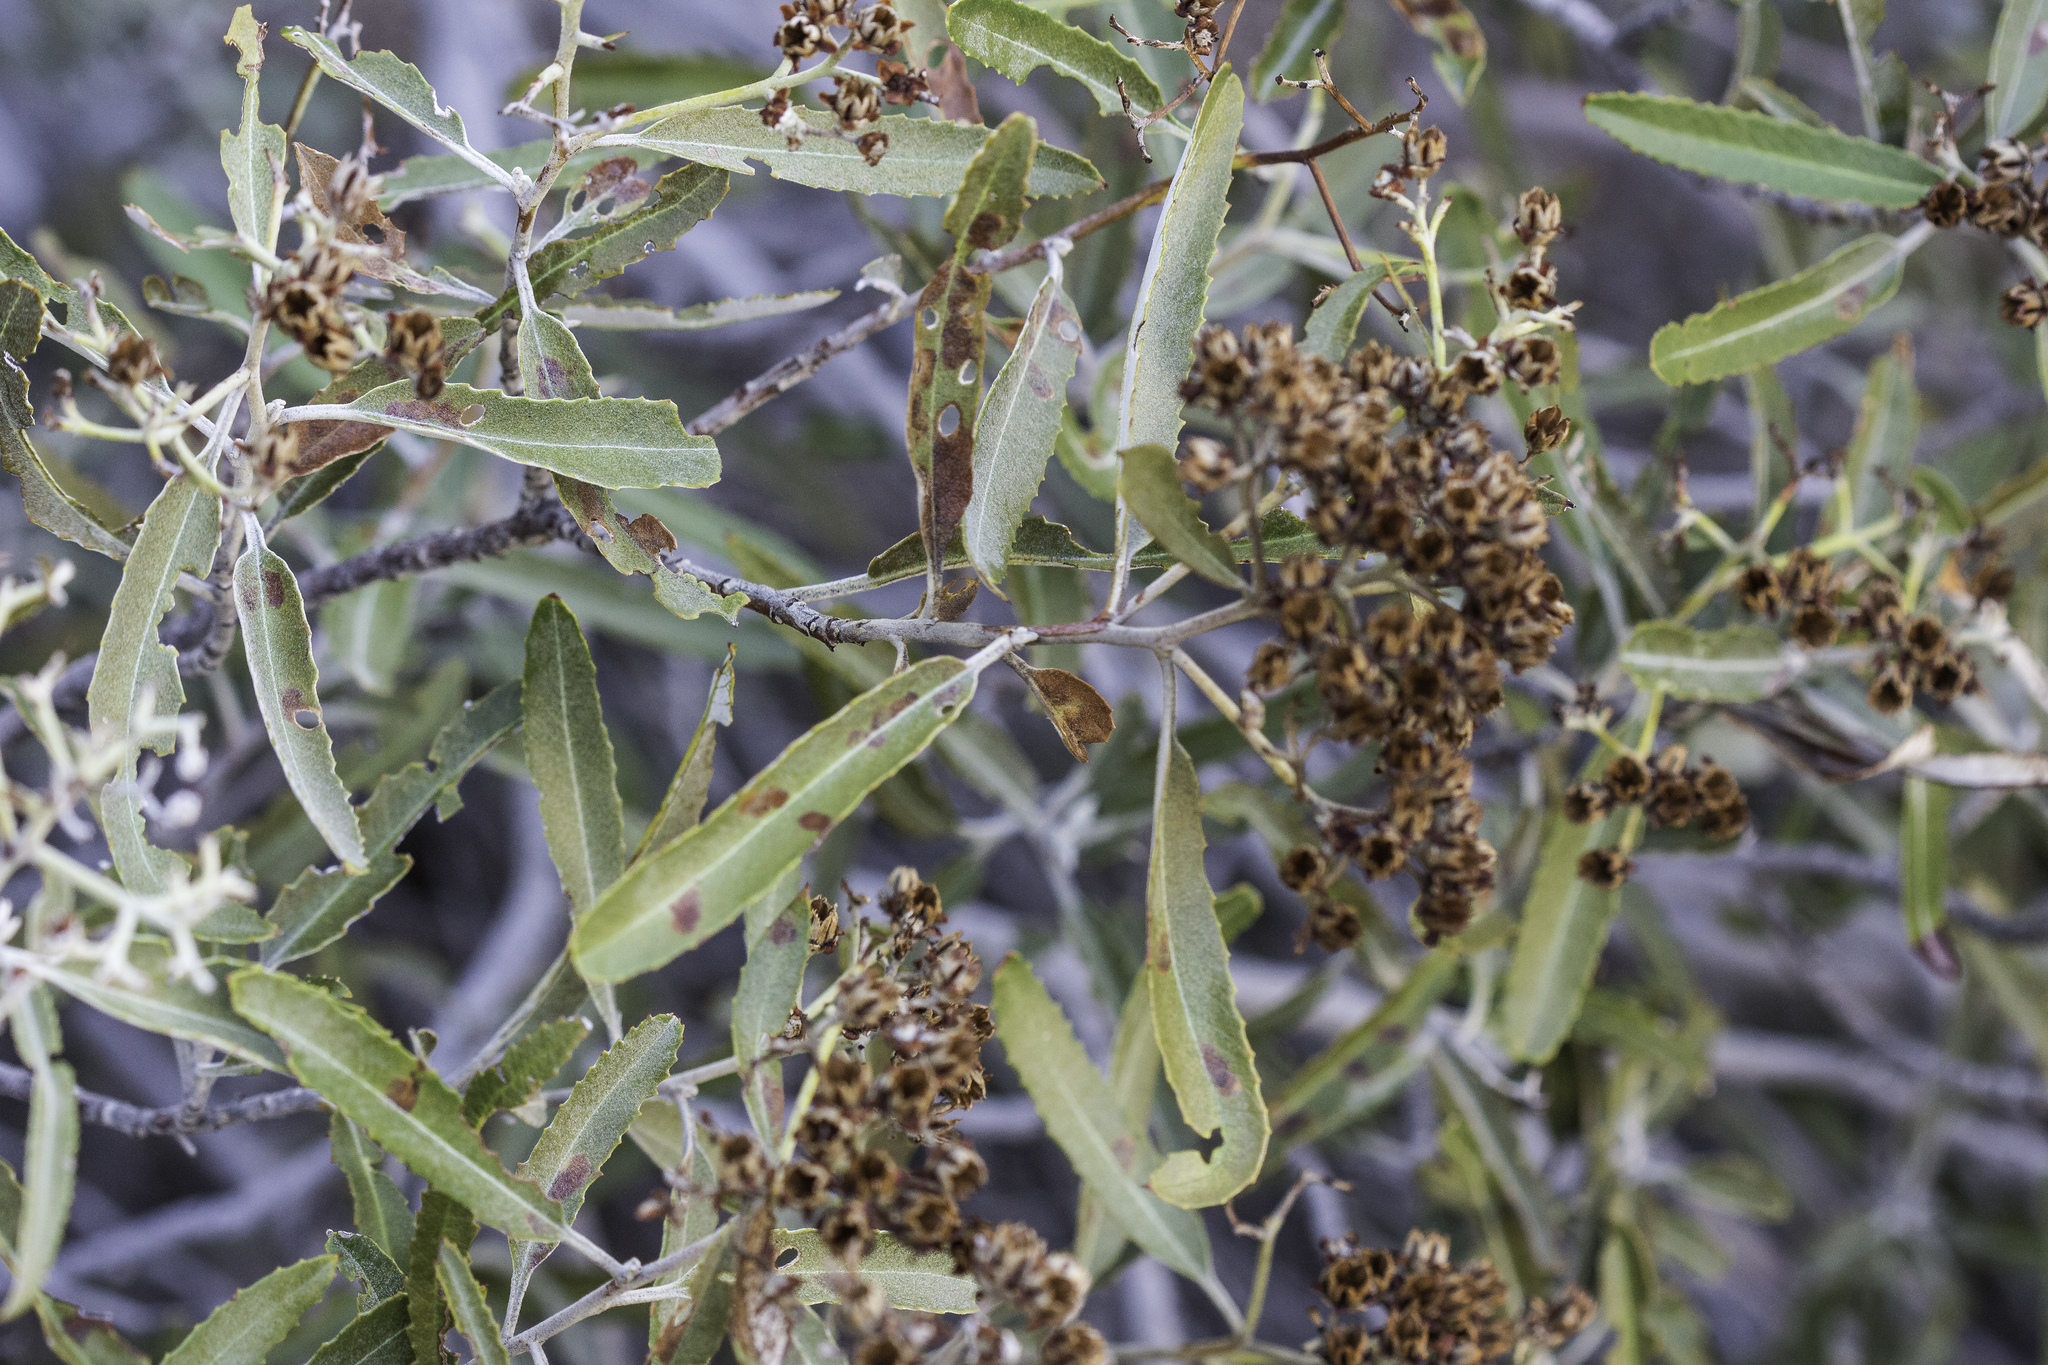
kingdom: Plantae
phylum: Tracheophyta
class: Magnoliopsida
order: Rosales
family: Rosaceae
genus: Vauquelinia
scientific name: Vauquelinia californica
